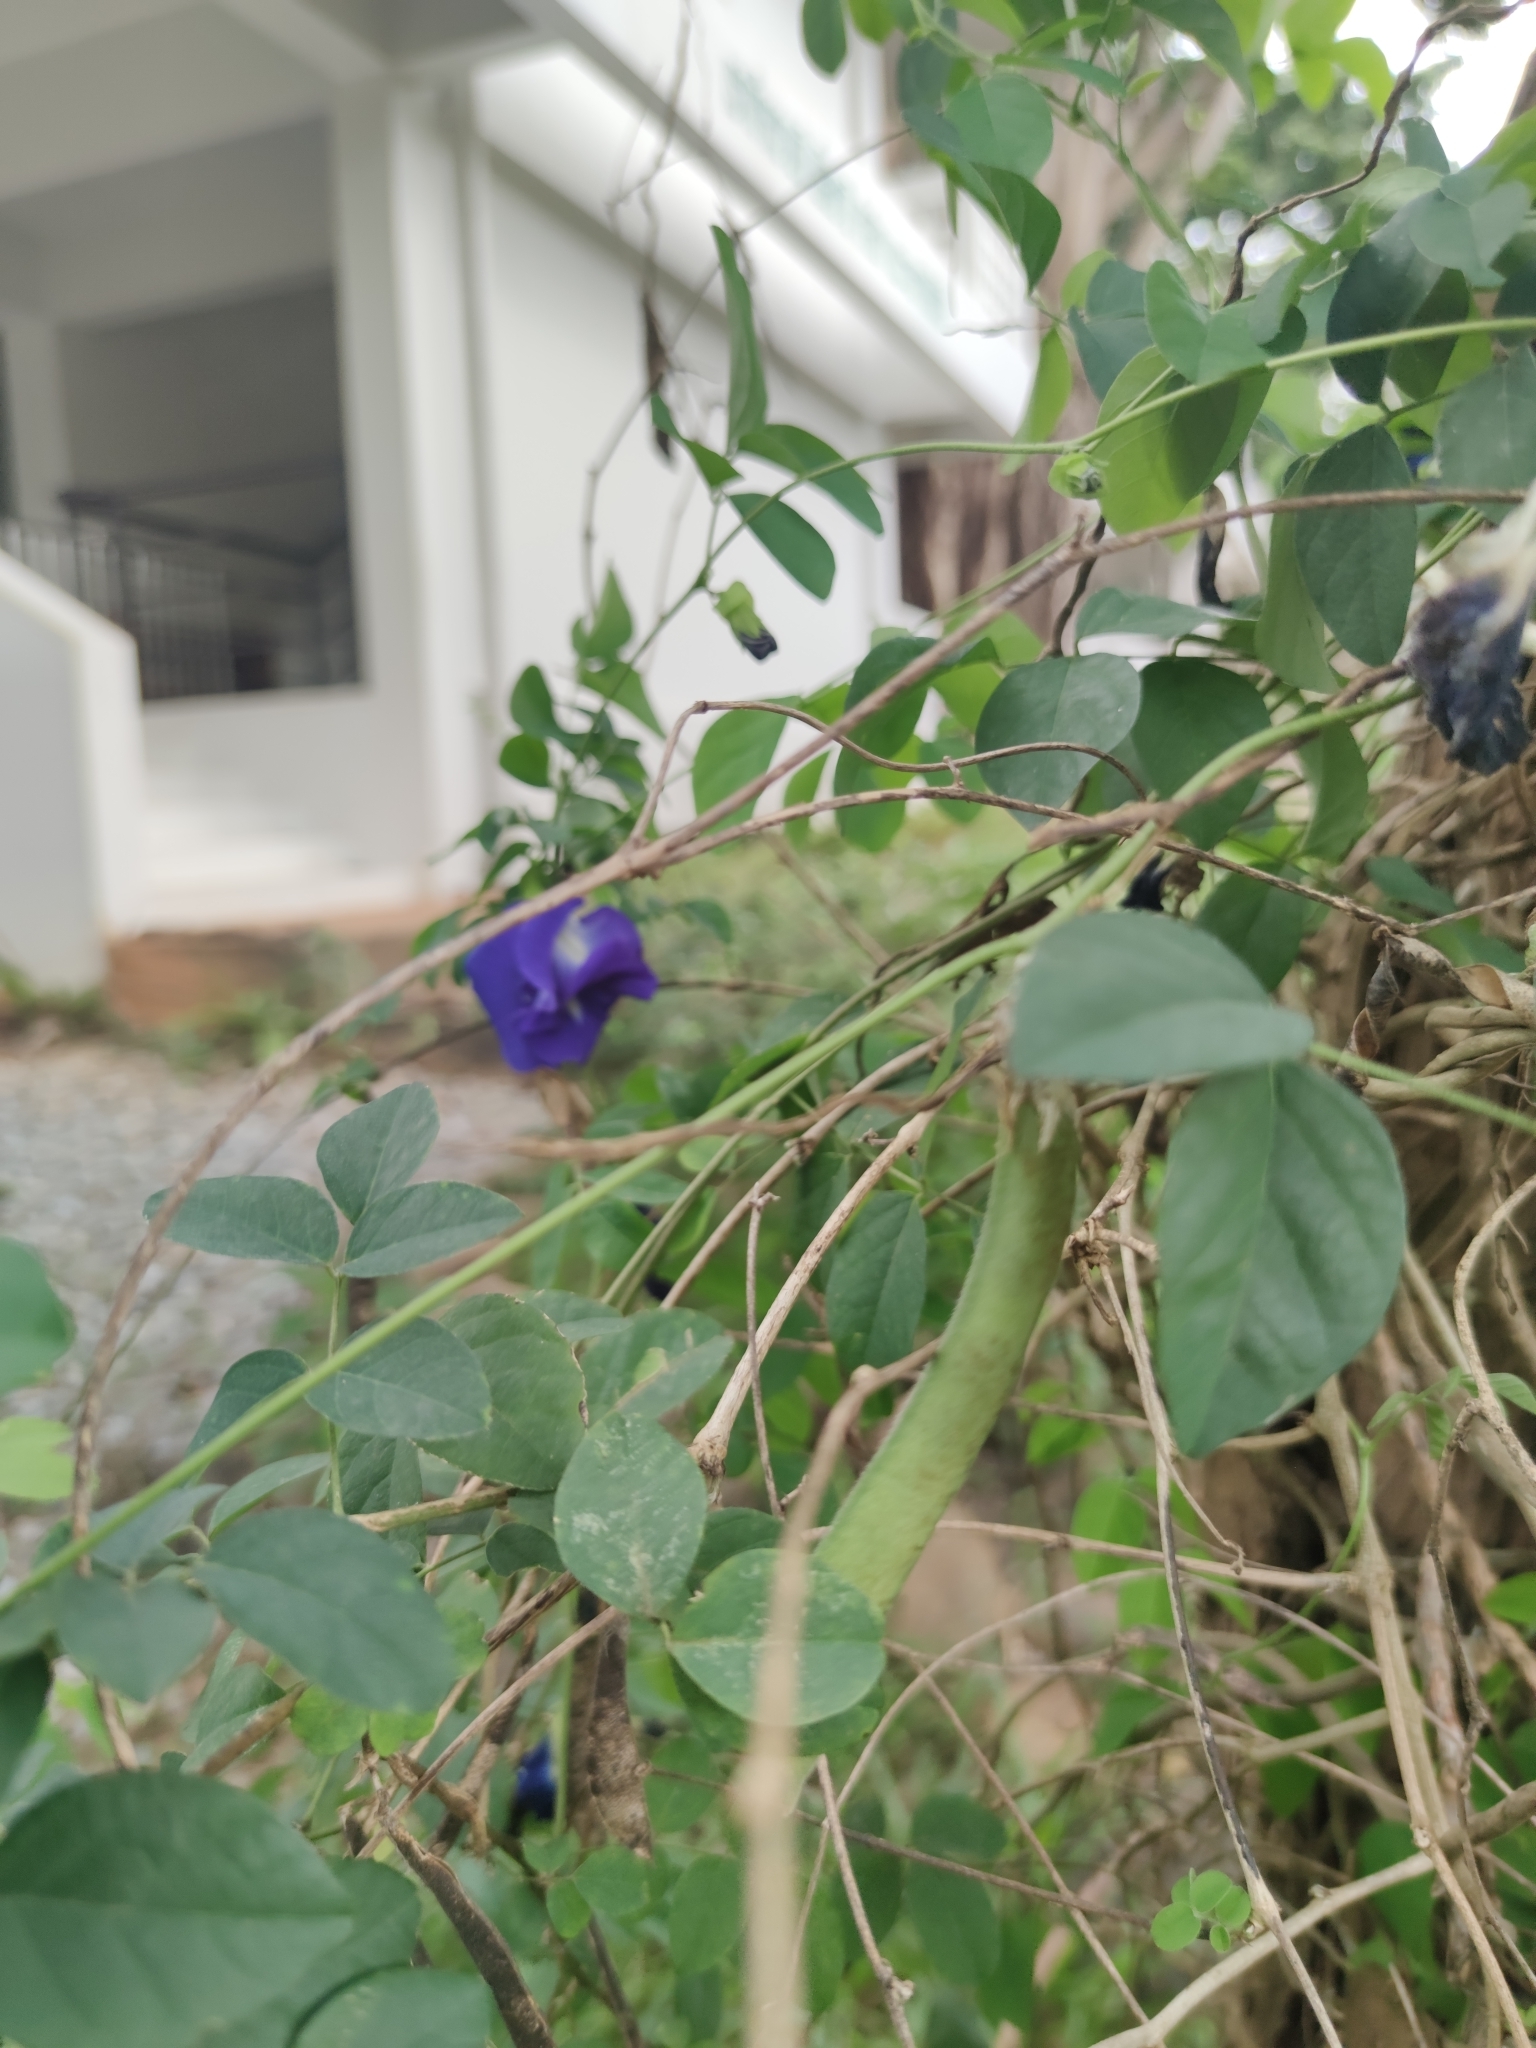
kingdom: Plantae
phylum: Tracheophyta
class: Magnoliopsida
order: Fabales
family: Fabaceae
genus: Clitoria
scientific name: Clitoria ternatea
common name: Asian pigeonwings
